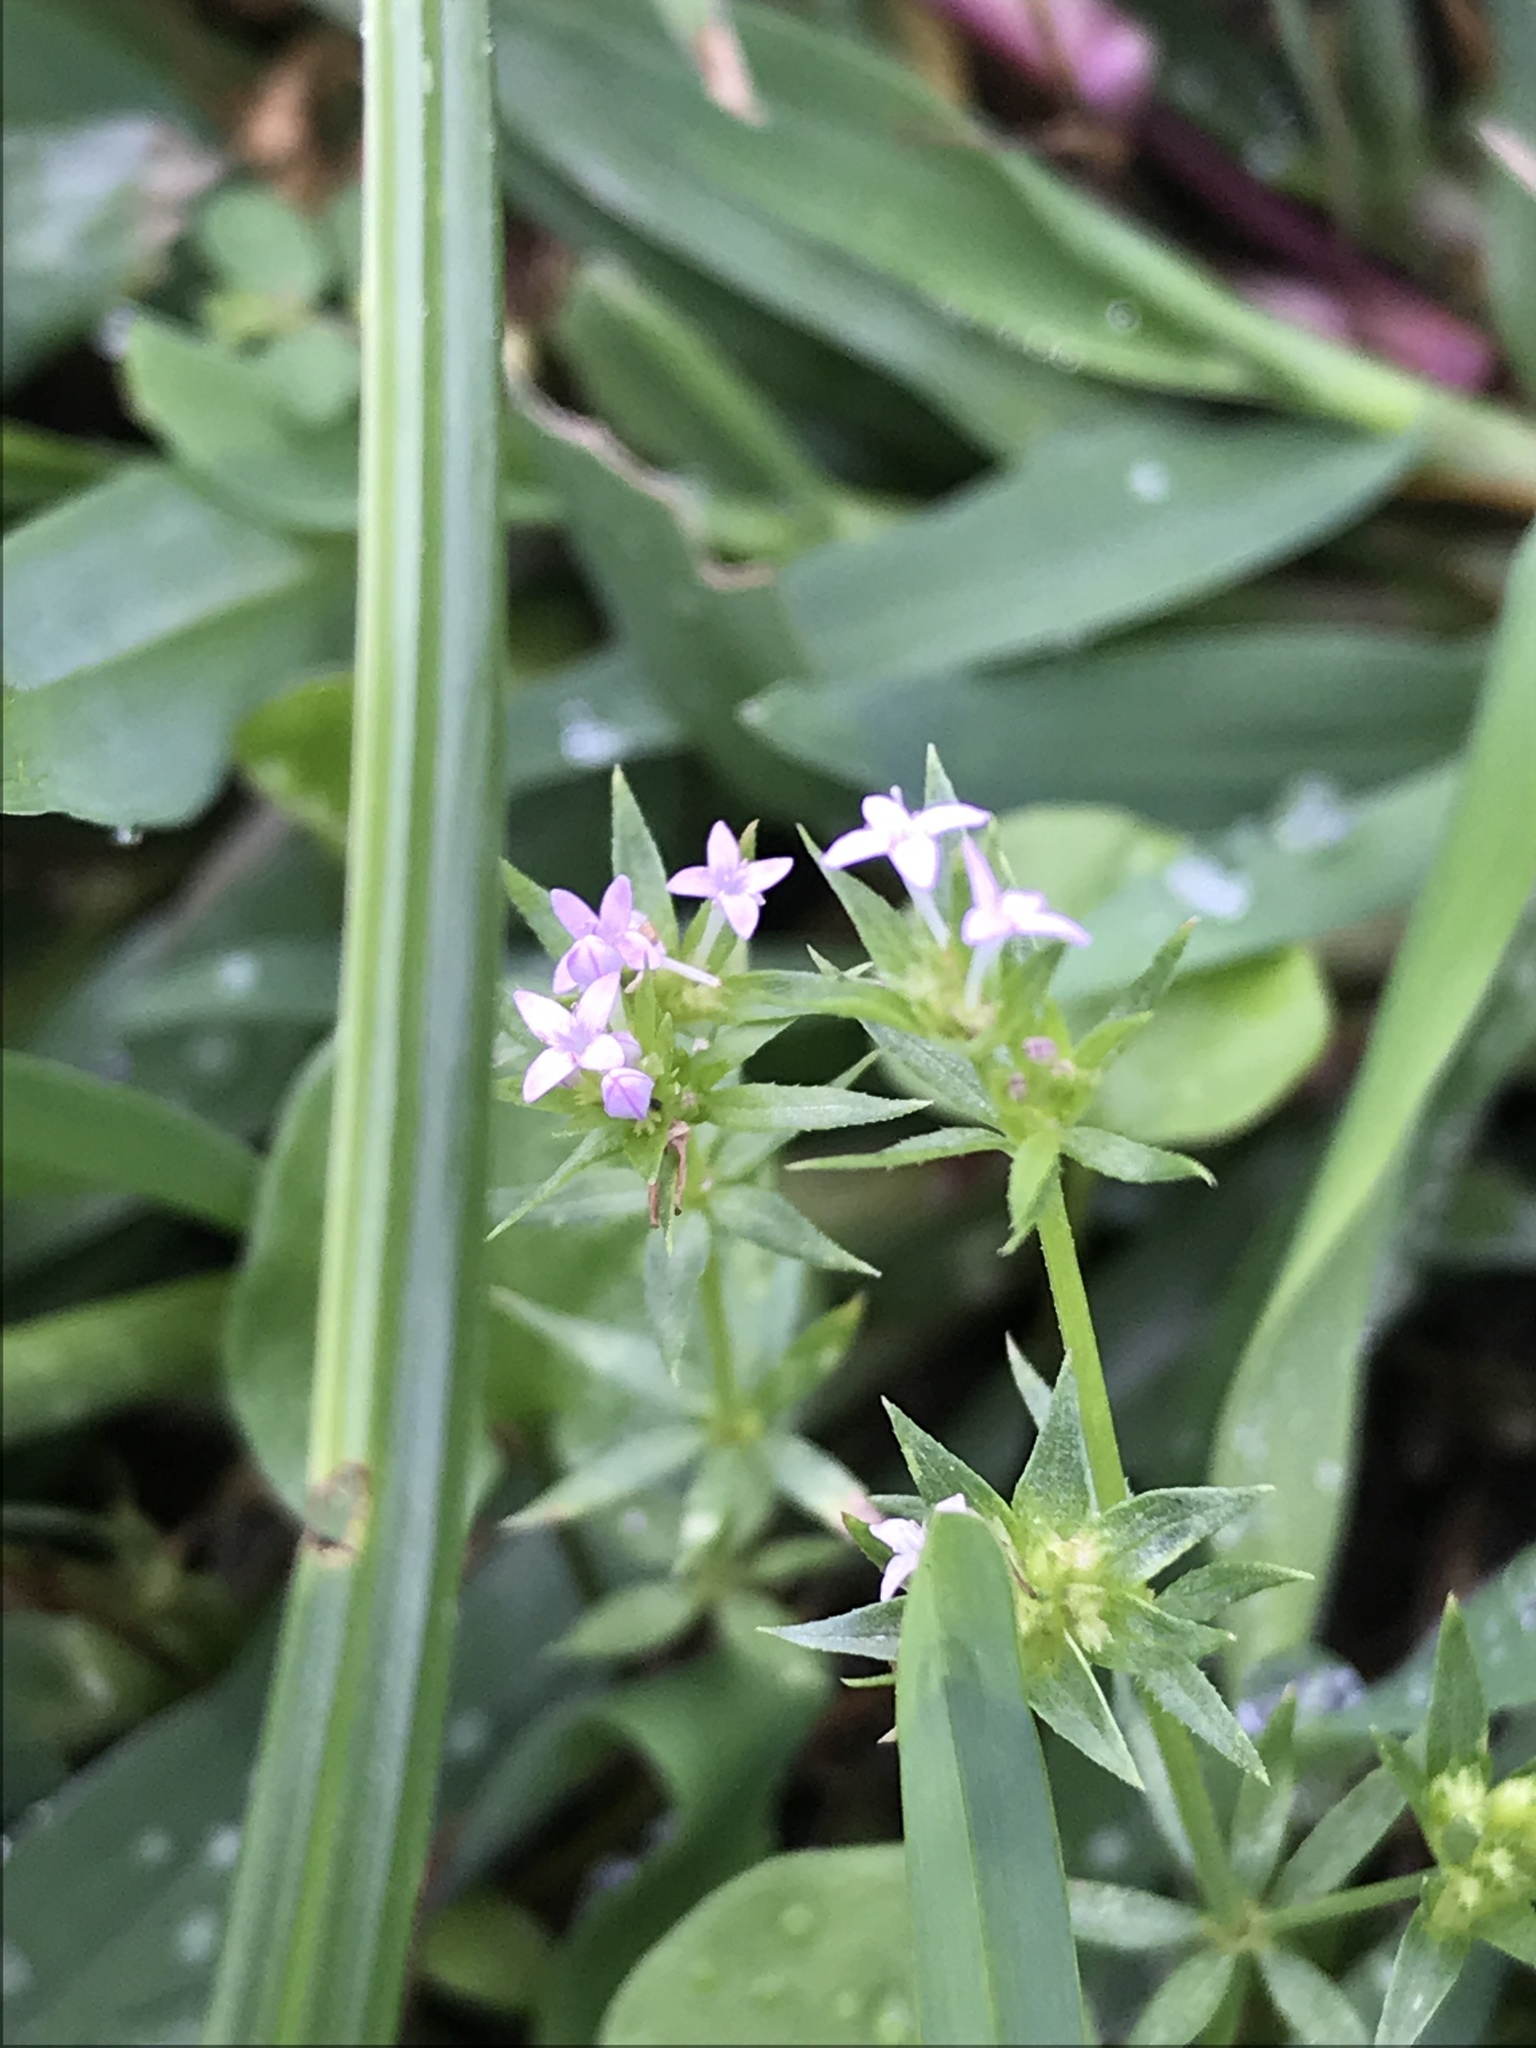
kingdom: Plantae
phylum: Tracheophyta
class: Magnoliopsida
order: Gentianales
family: Rubiaceae
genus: Sherardia
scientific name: Sherardia arvensis
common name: Field madder
